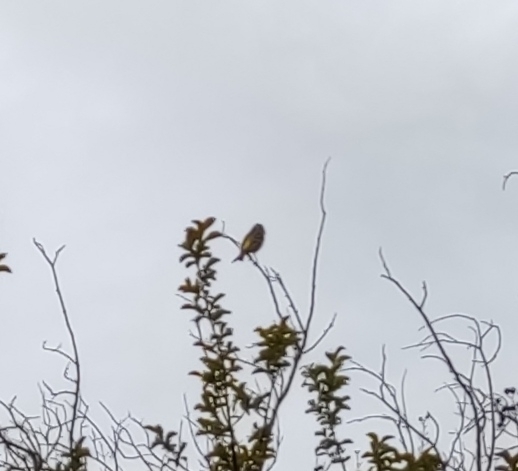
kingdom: Animalia
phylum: Chordata
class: Aves
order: Passeriformes
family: Fringillidae
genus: Serinus
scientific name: Serinus serinus
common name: European serin
